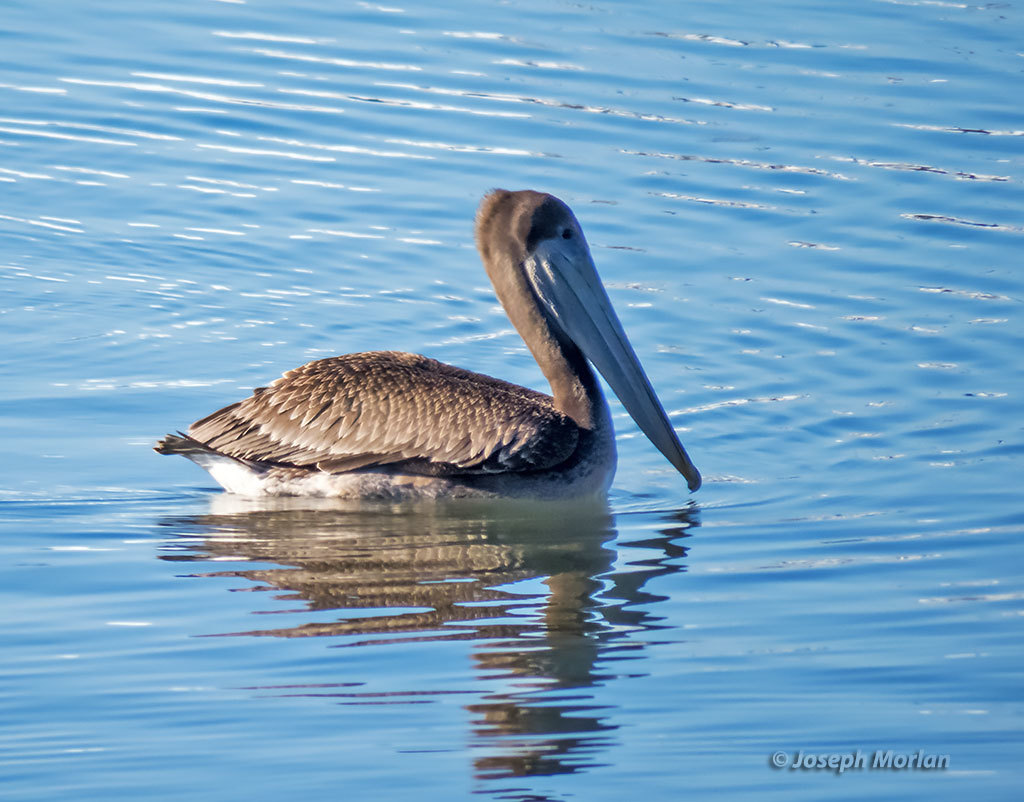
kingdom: Animalia
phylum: Chordata
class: Aves
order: Pelecaniformes
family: Pelecanidae
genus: Pelecanus
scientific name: Pelecanus occidentalis
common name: Brown pelican
